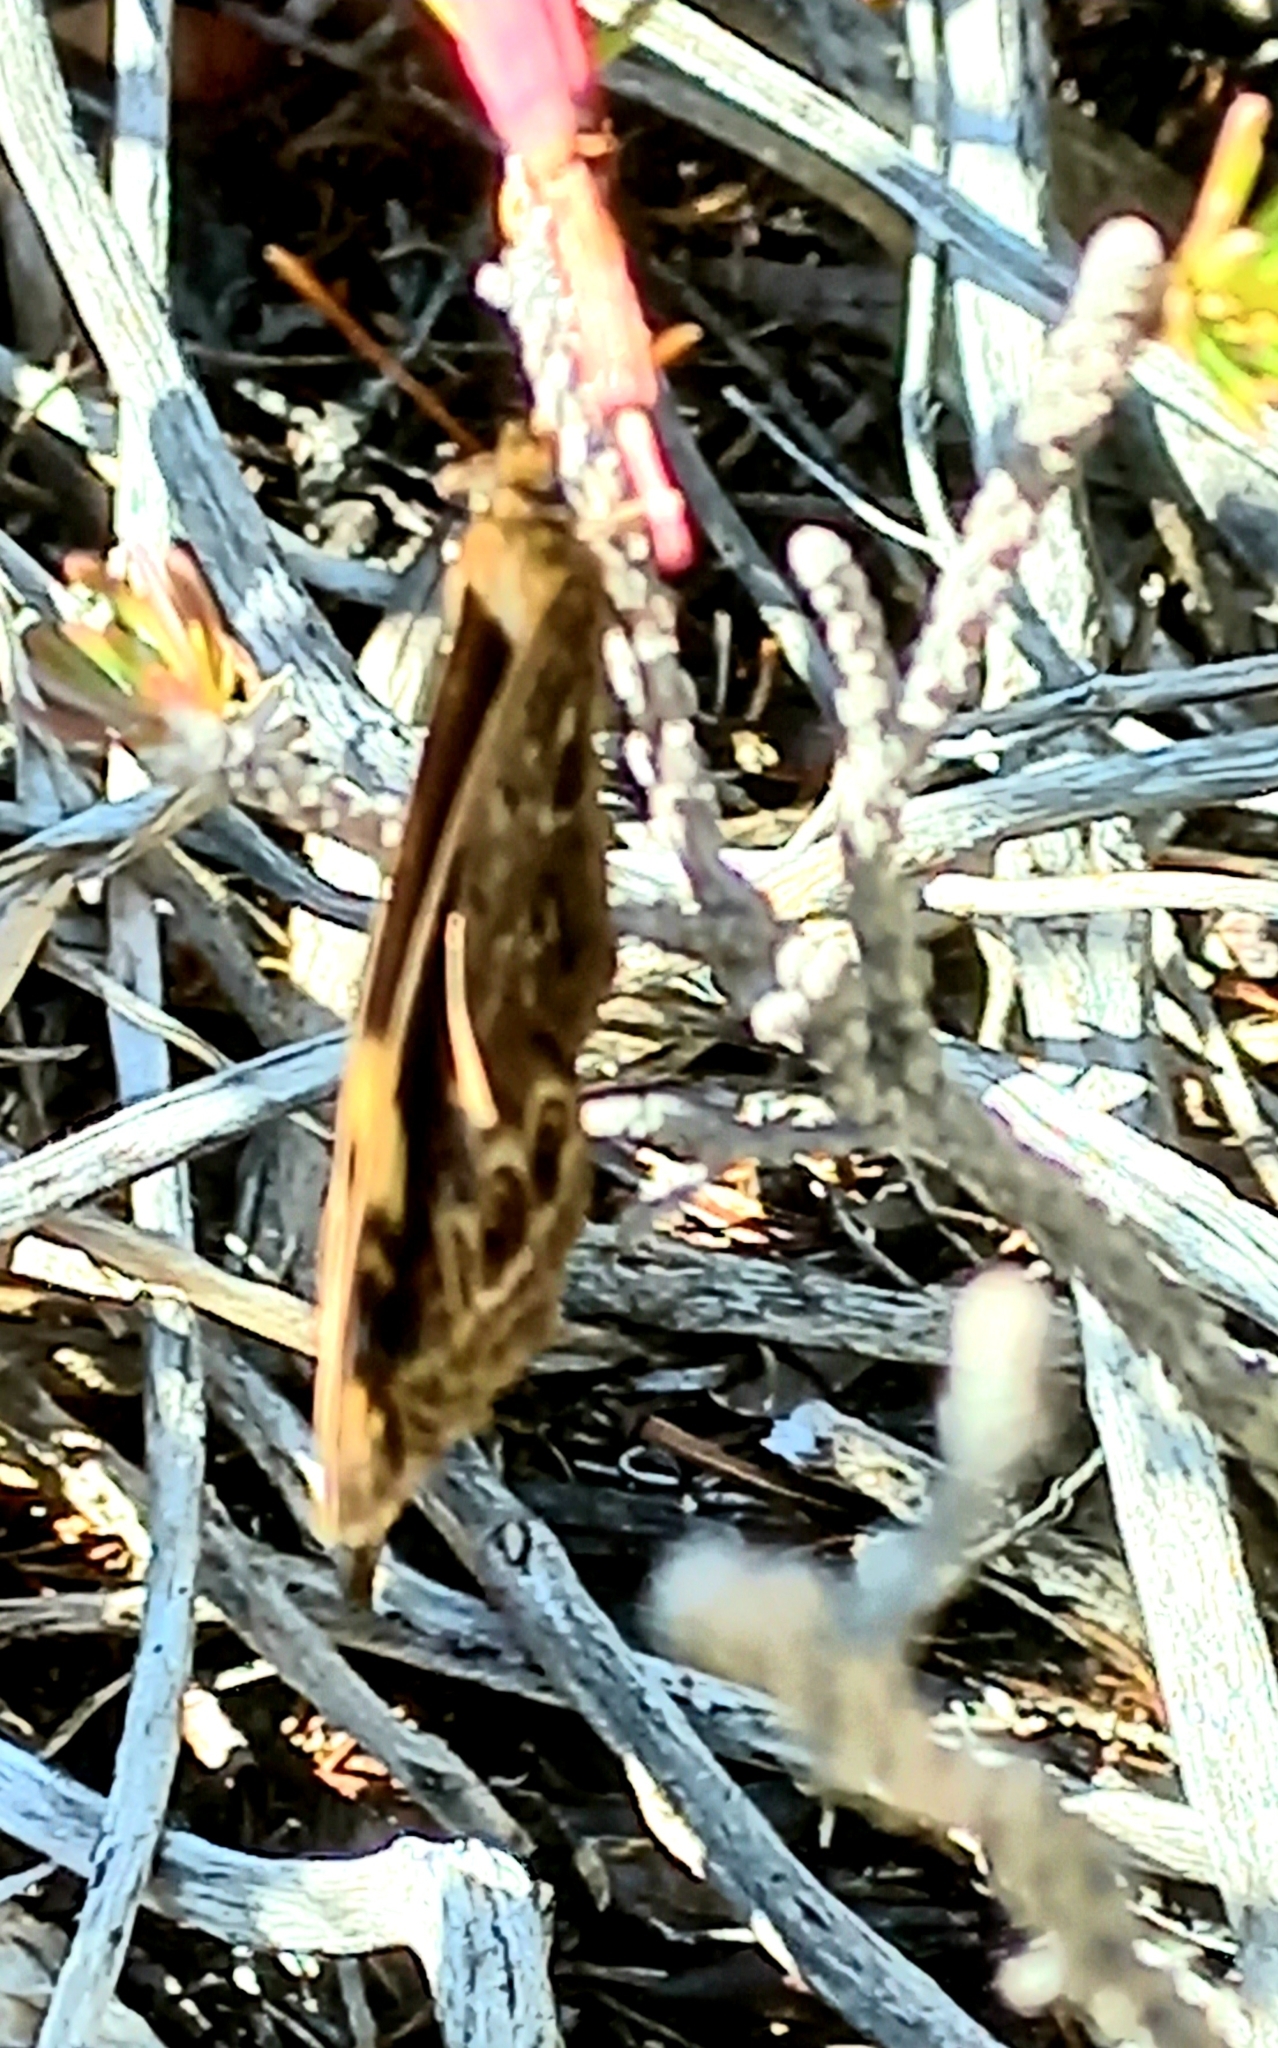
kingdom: Animalia
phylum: Arthropoda
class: Insecta
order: Lepidoptera
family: Nymphalidae
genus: Dira
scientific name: Dira clytus
